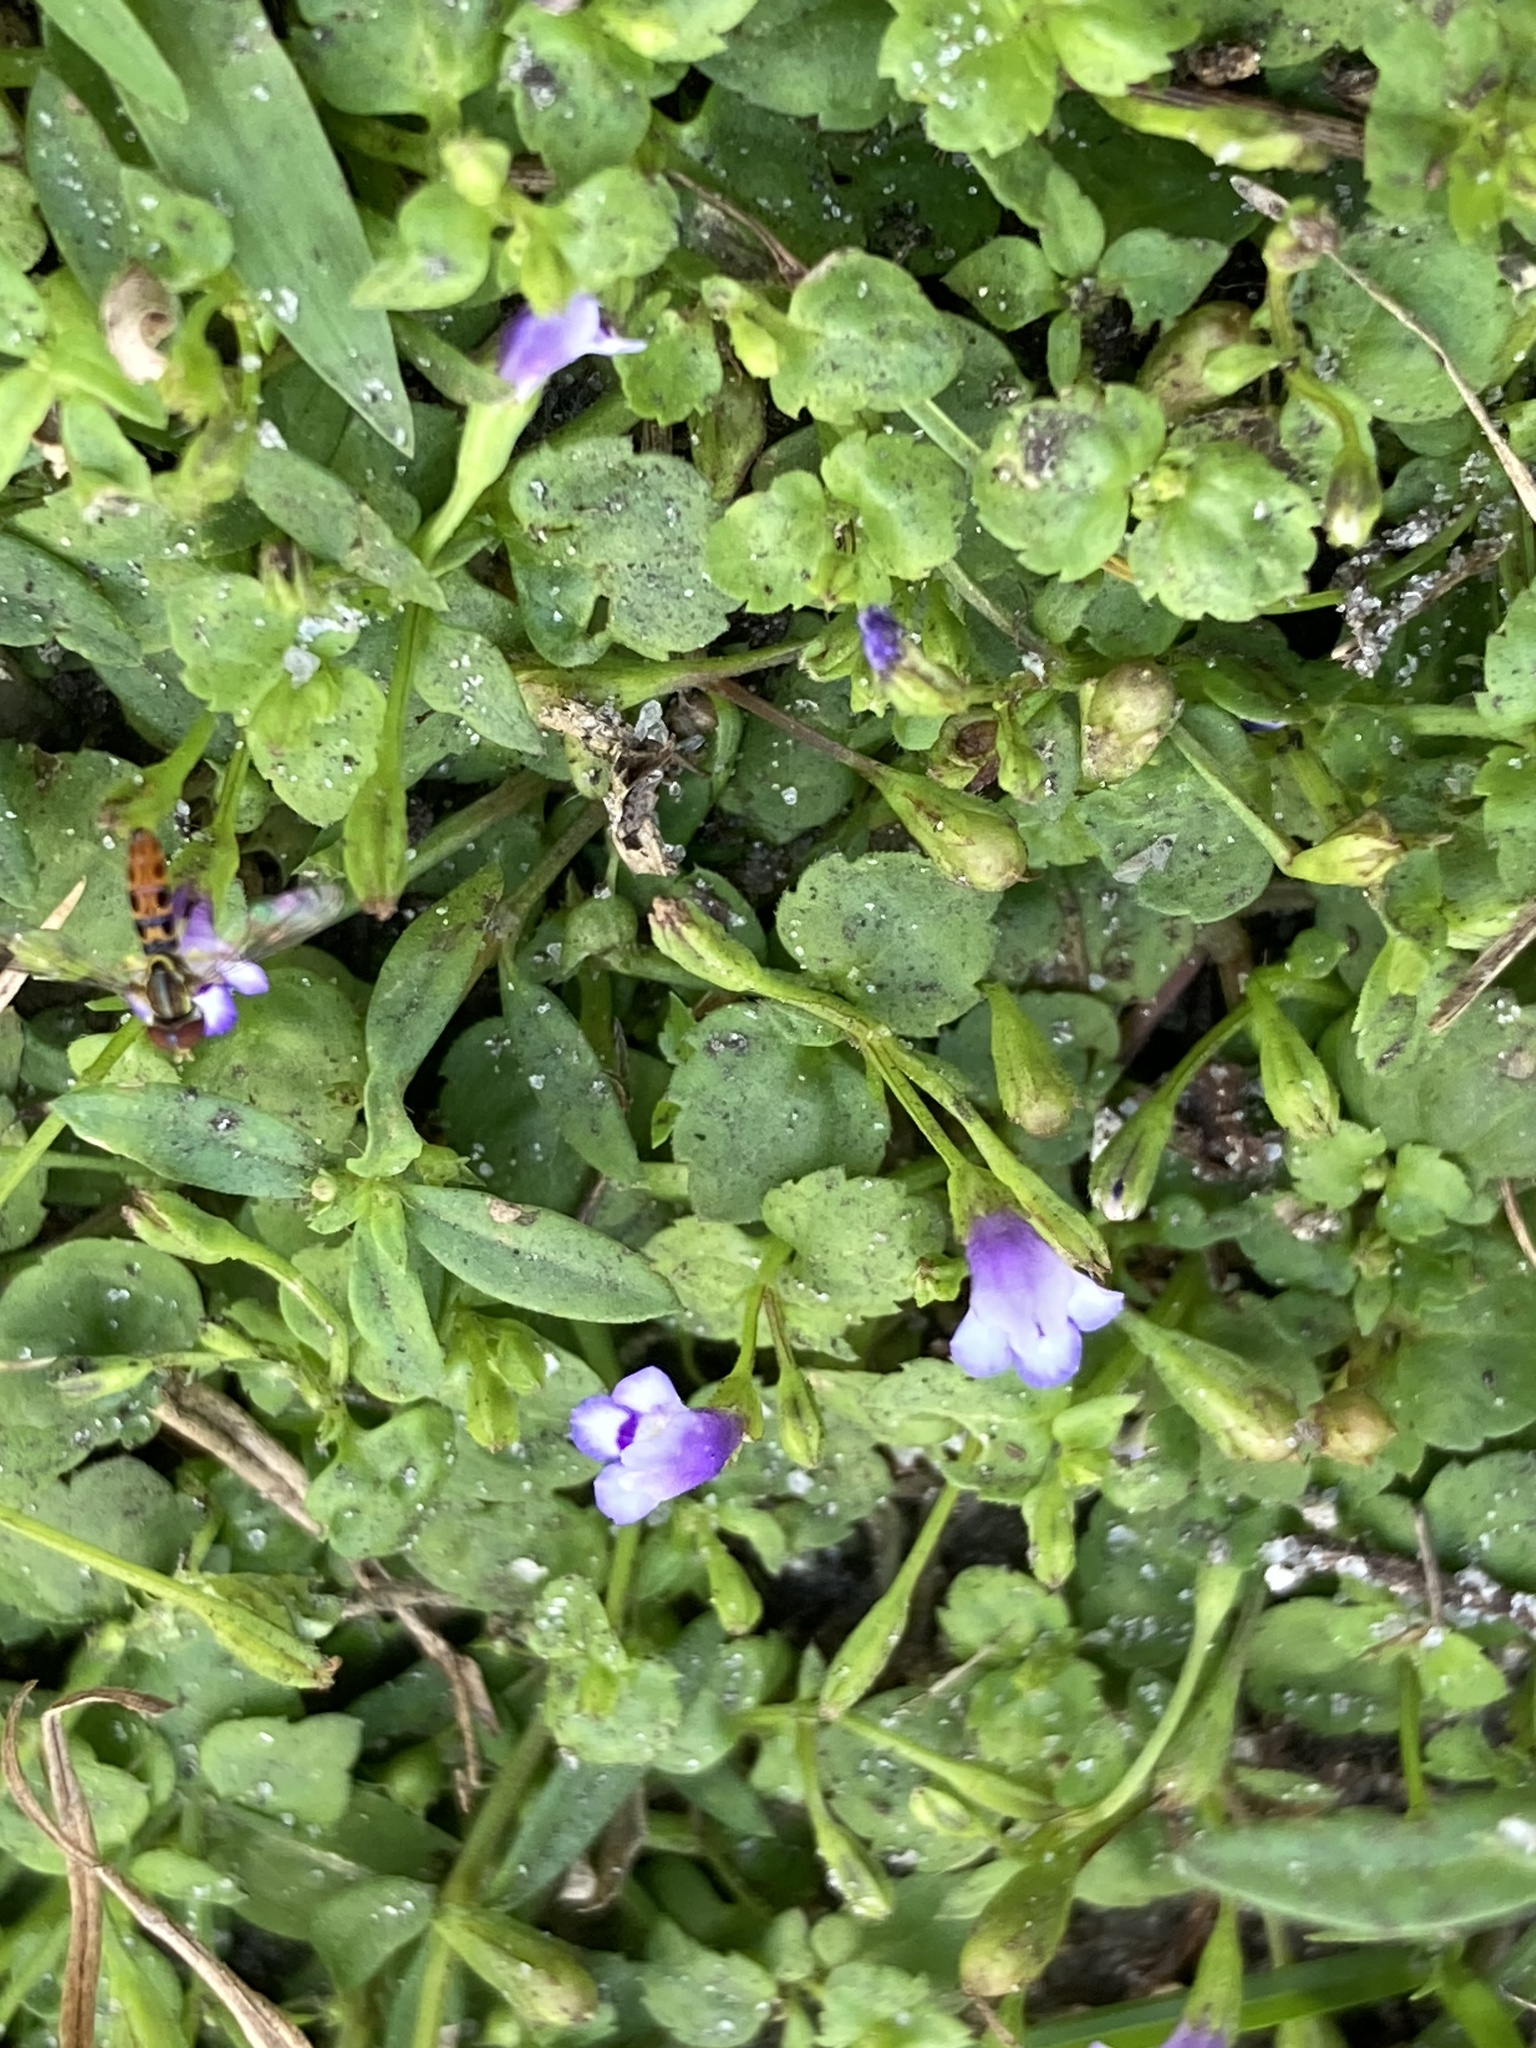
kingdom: Plantae
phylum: Tracheophyta
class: Magnoliopsida
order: Lamiales
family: Linderniaceae
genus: Torenia
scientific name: Torenia crustacea
